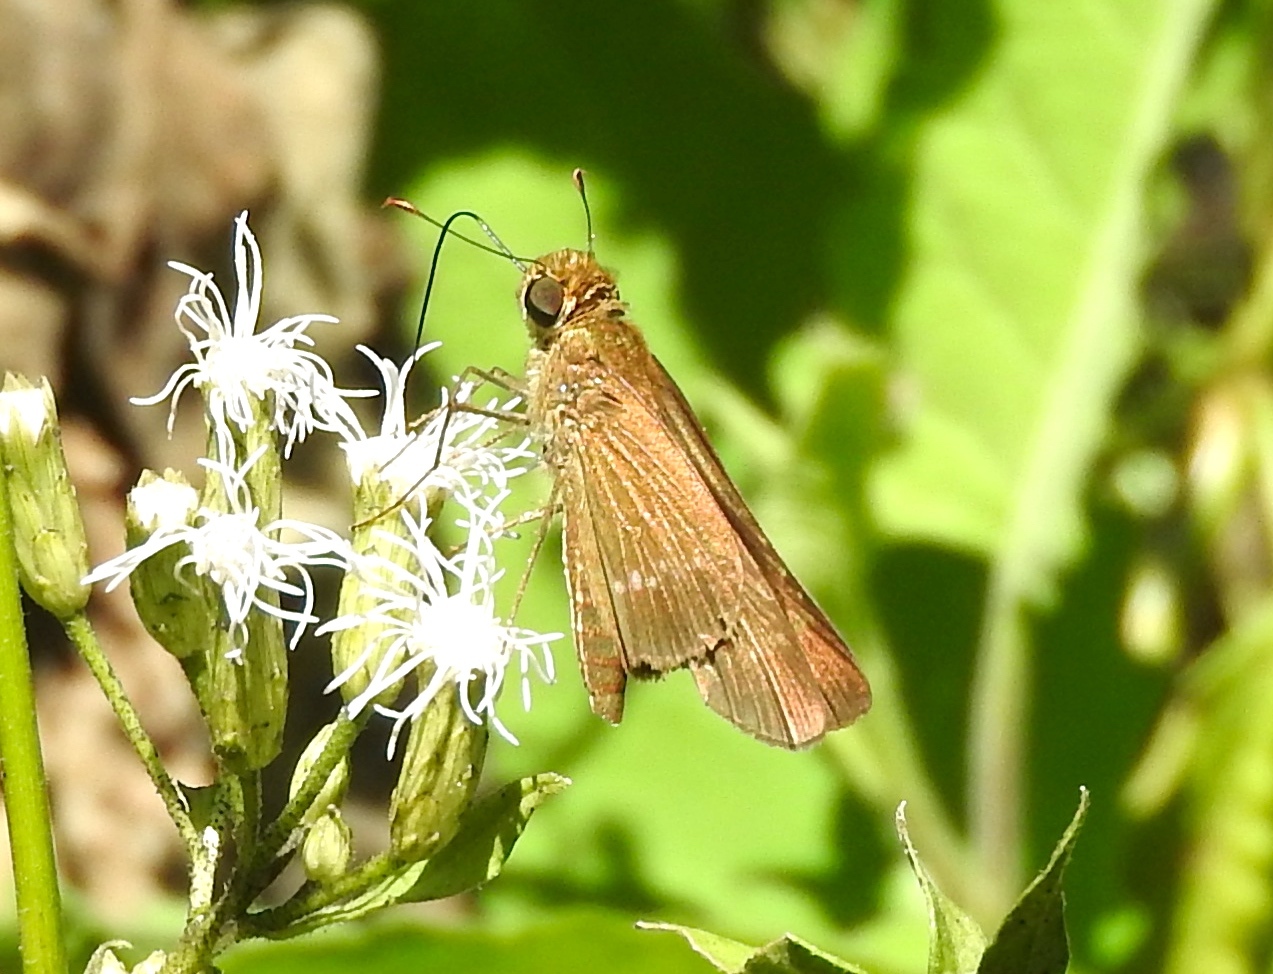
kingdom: Animalia
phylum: Arthropoda
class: Insecta
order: Lepidoptera
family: Hesperiidae
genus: Panoquina
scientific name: Panoquina
